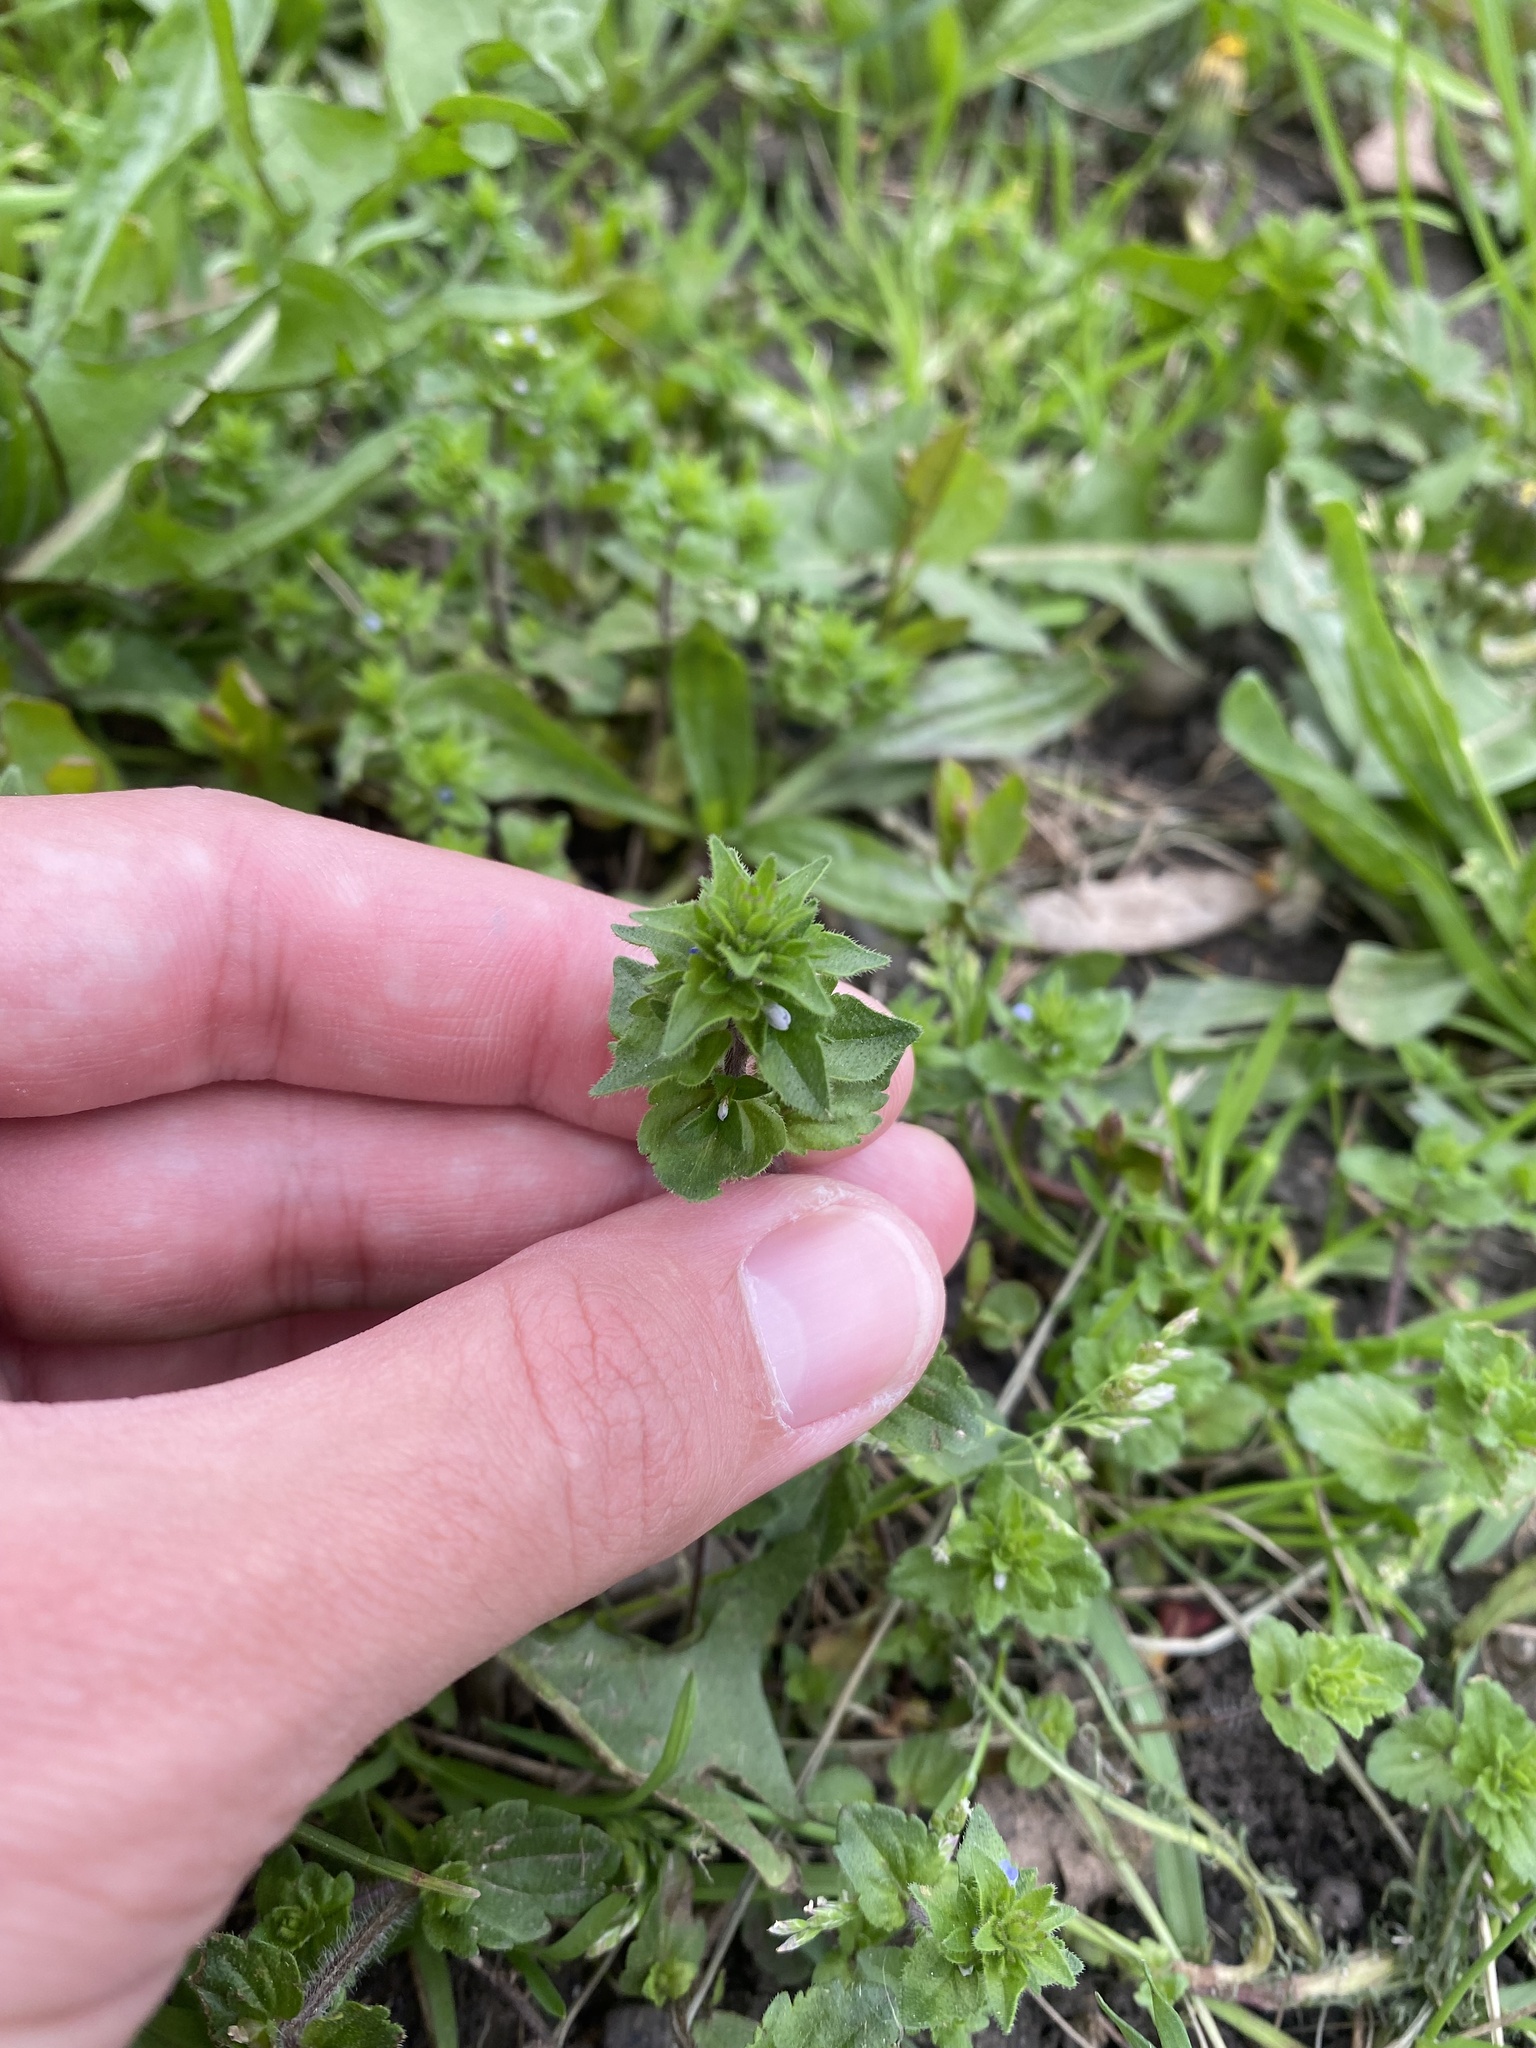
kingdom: Plantae
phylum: Tracheophyta
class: Magnoliopsida
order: Lamiales
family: Plantaginaceae
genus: Veronica
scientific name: Veronica arvensis
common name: Corn speedwell
